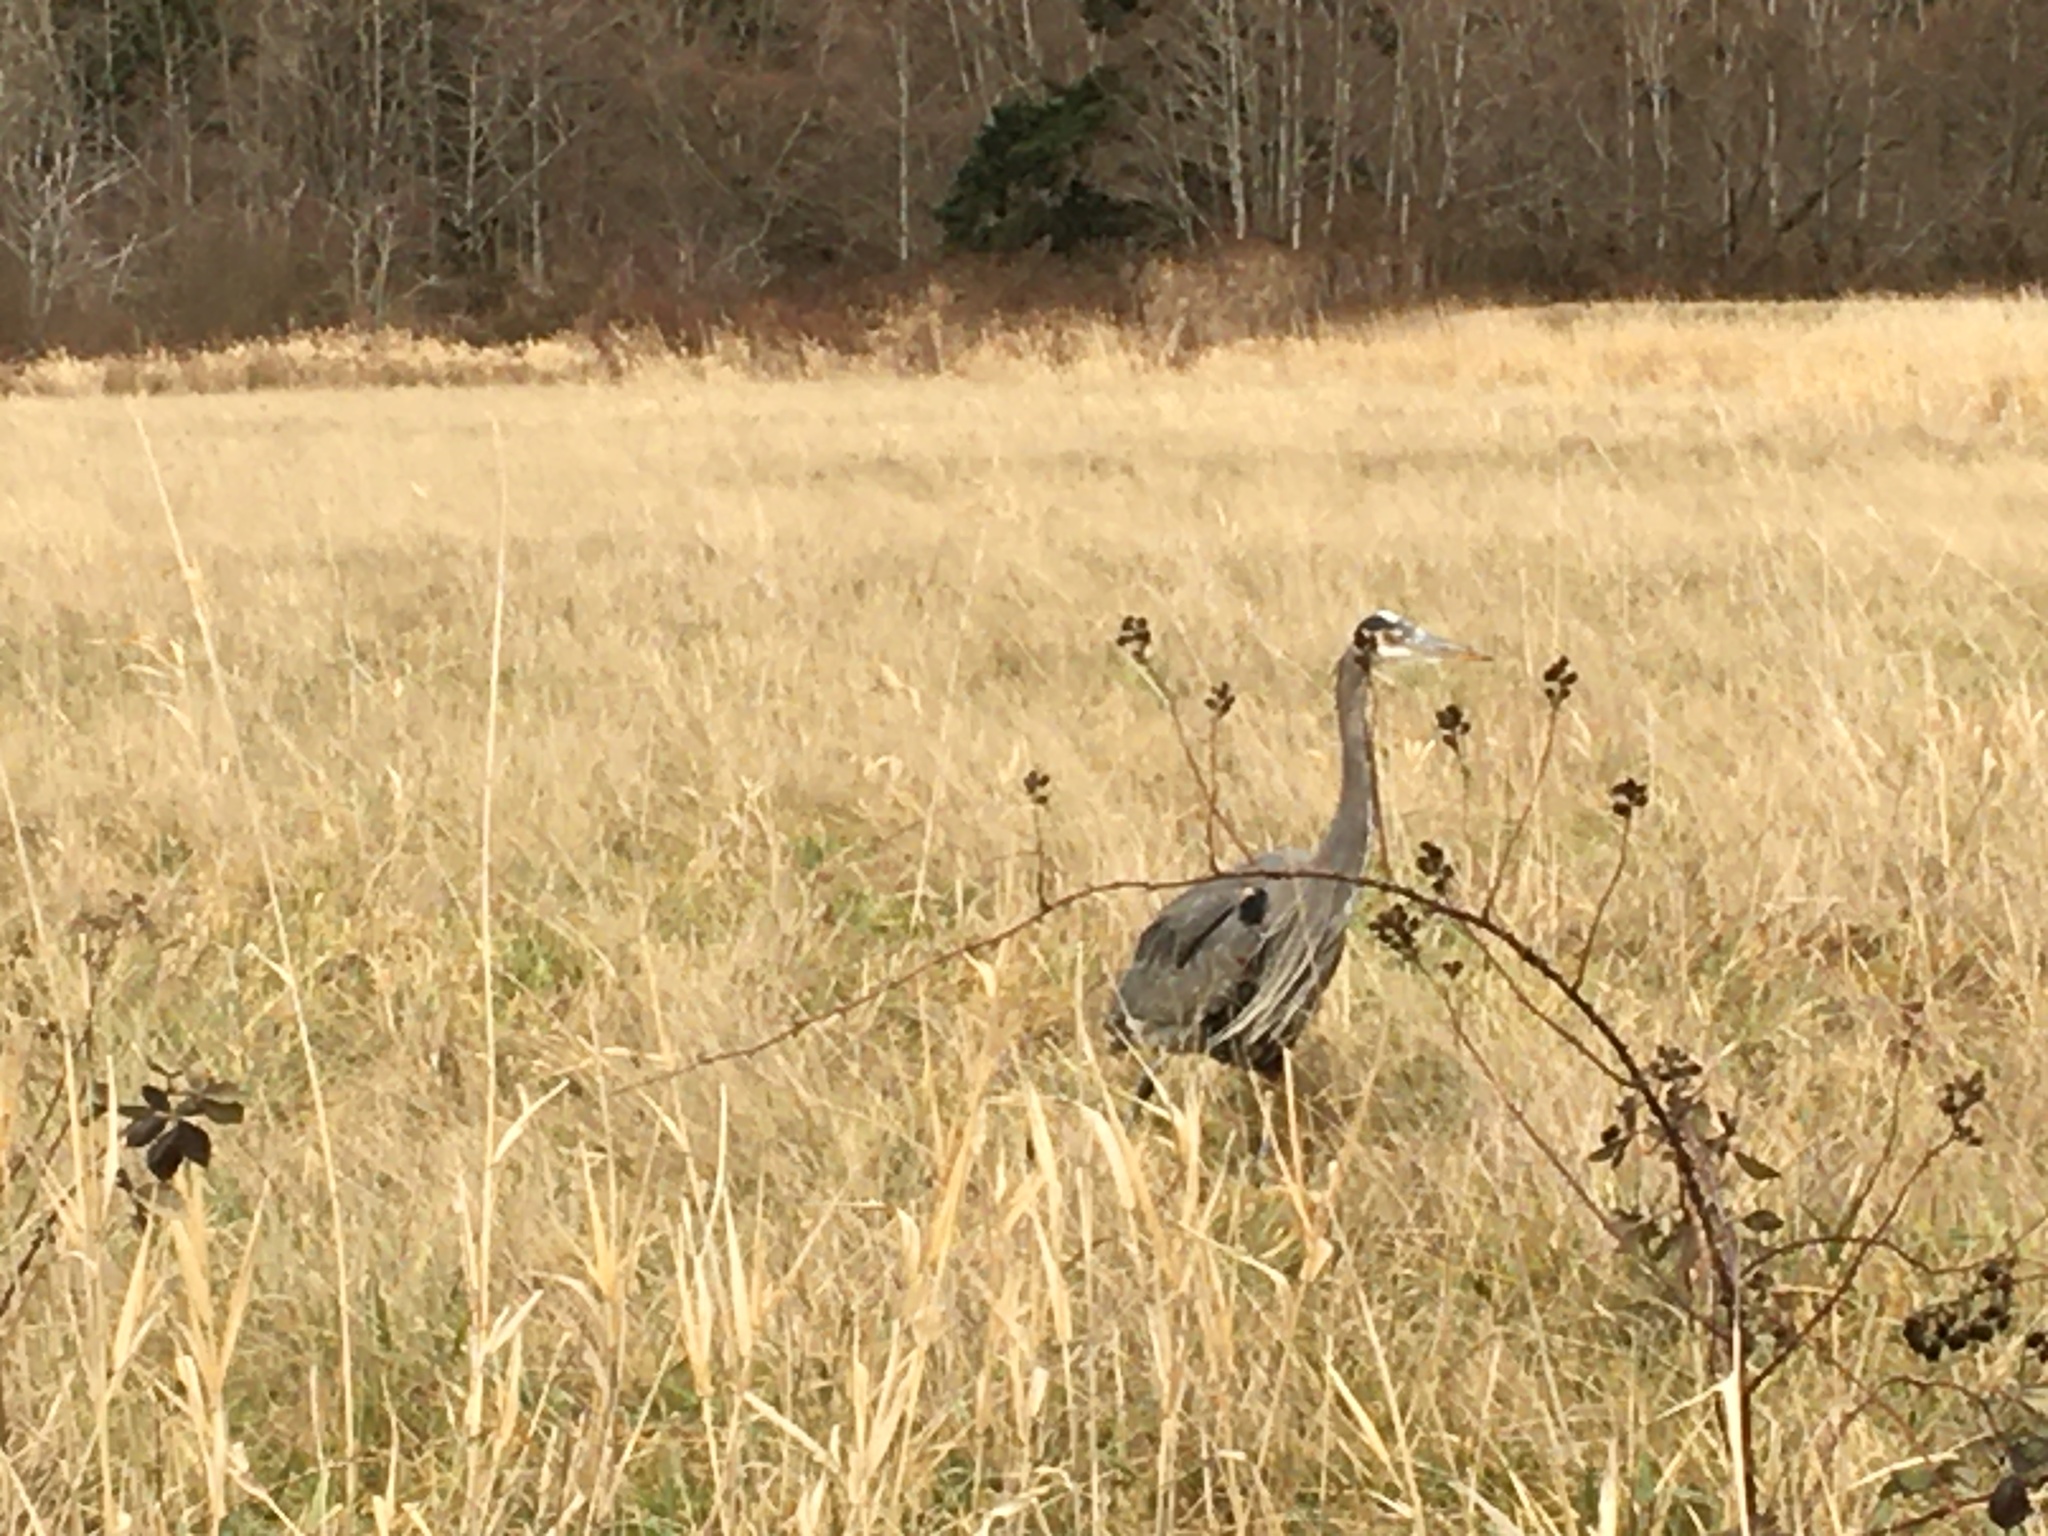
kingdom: Animalia
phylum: Chordata
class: Aves
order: Pelecaniformes
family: Ardeidae
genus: Ardea
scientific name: Ardea herodias
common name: Great blue heron
